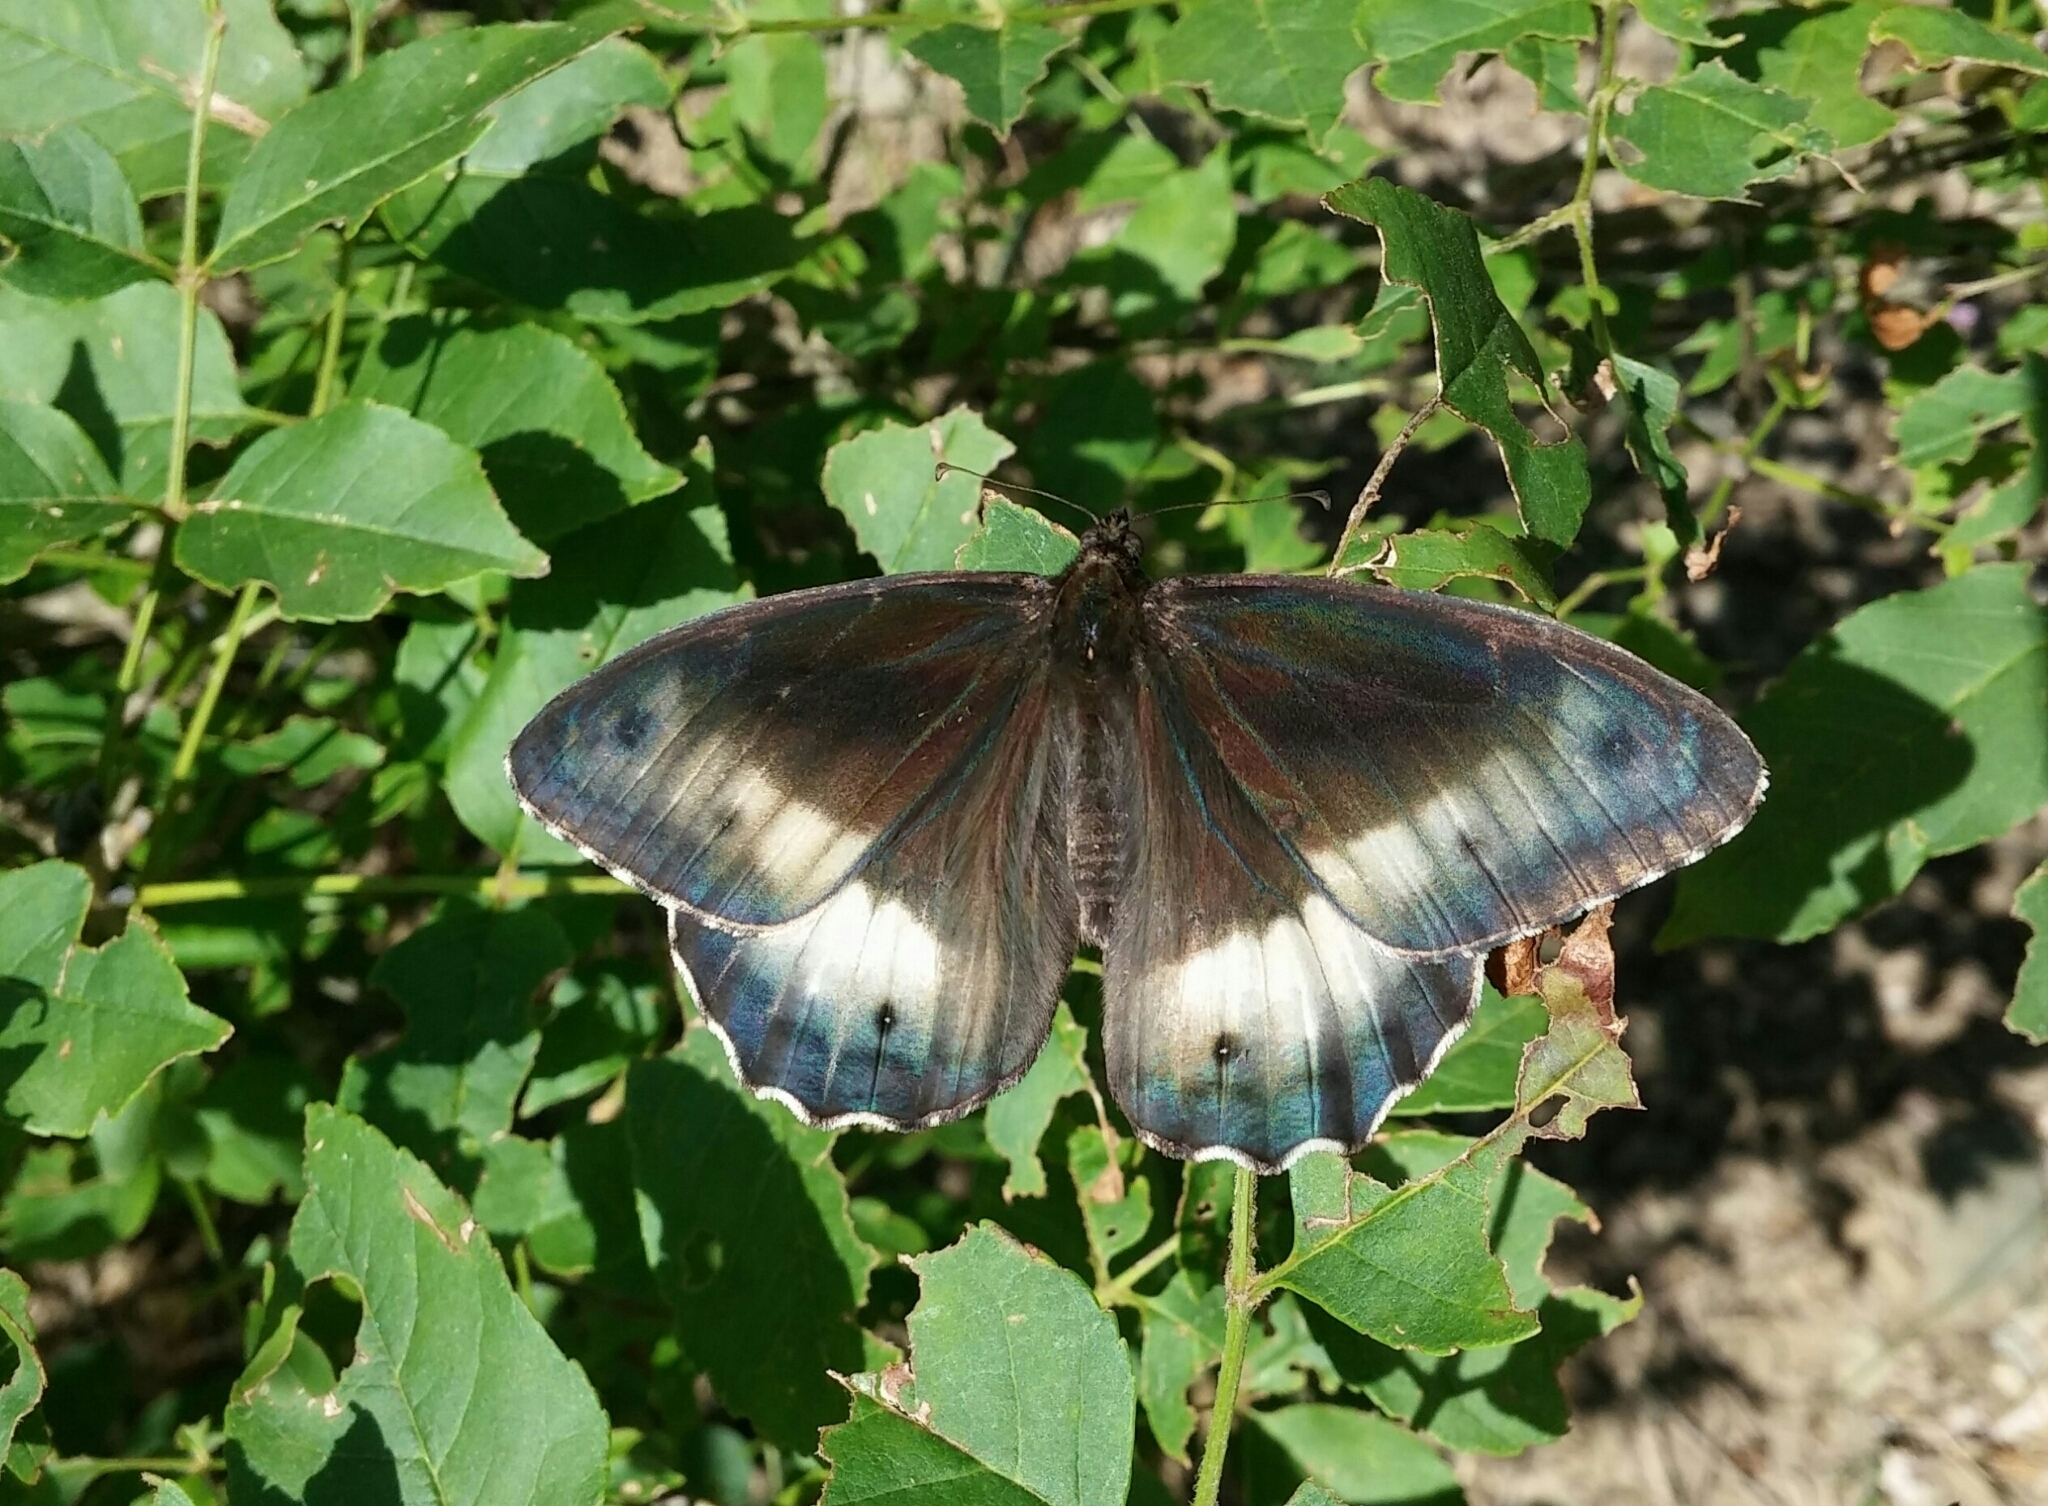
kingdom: Animalia
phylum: Arthropoda
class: Insecta
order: Lepidoptera
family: Nymphalidae
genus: Hipparchia
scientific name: Hipparchia fagi
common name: Woodland grayling
